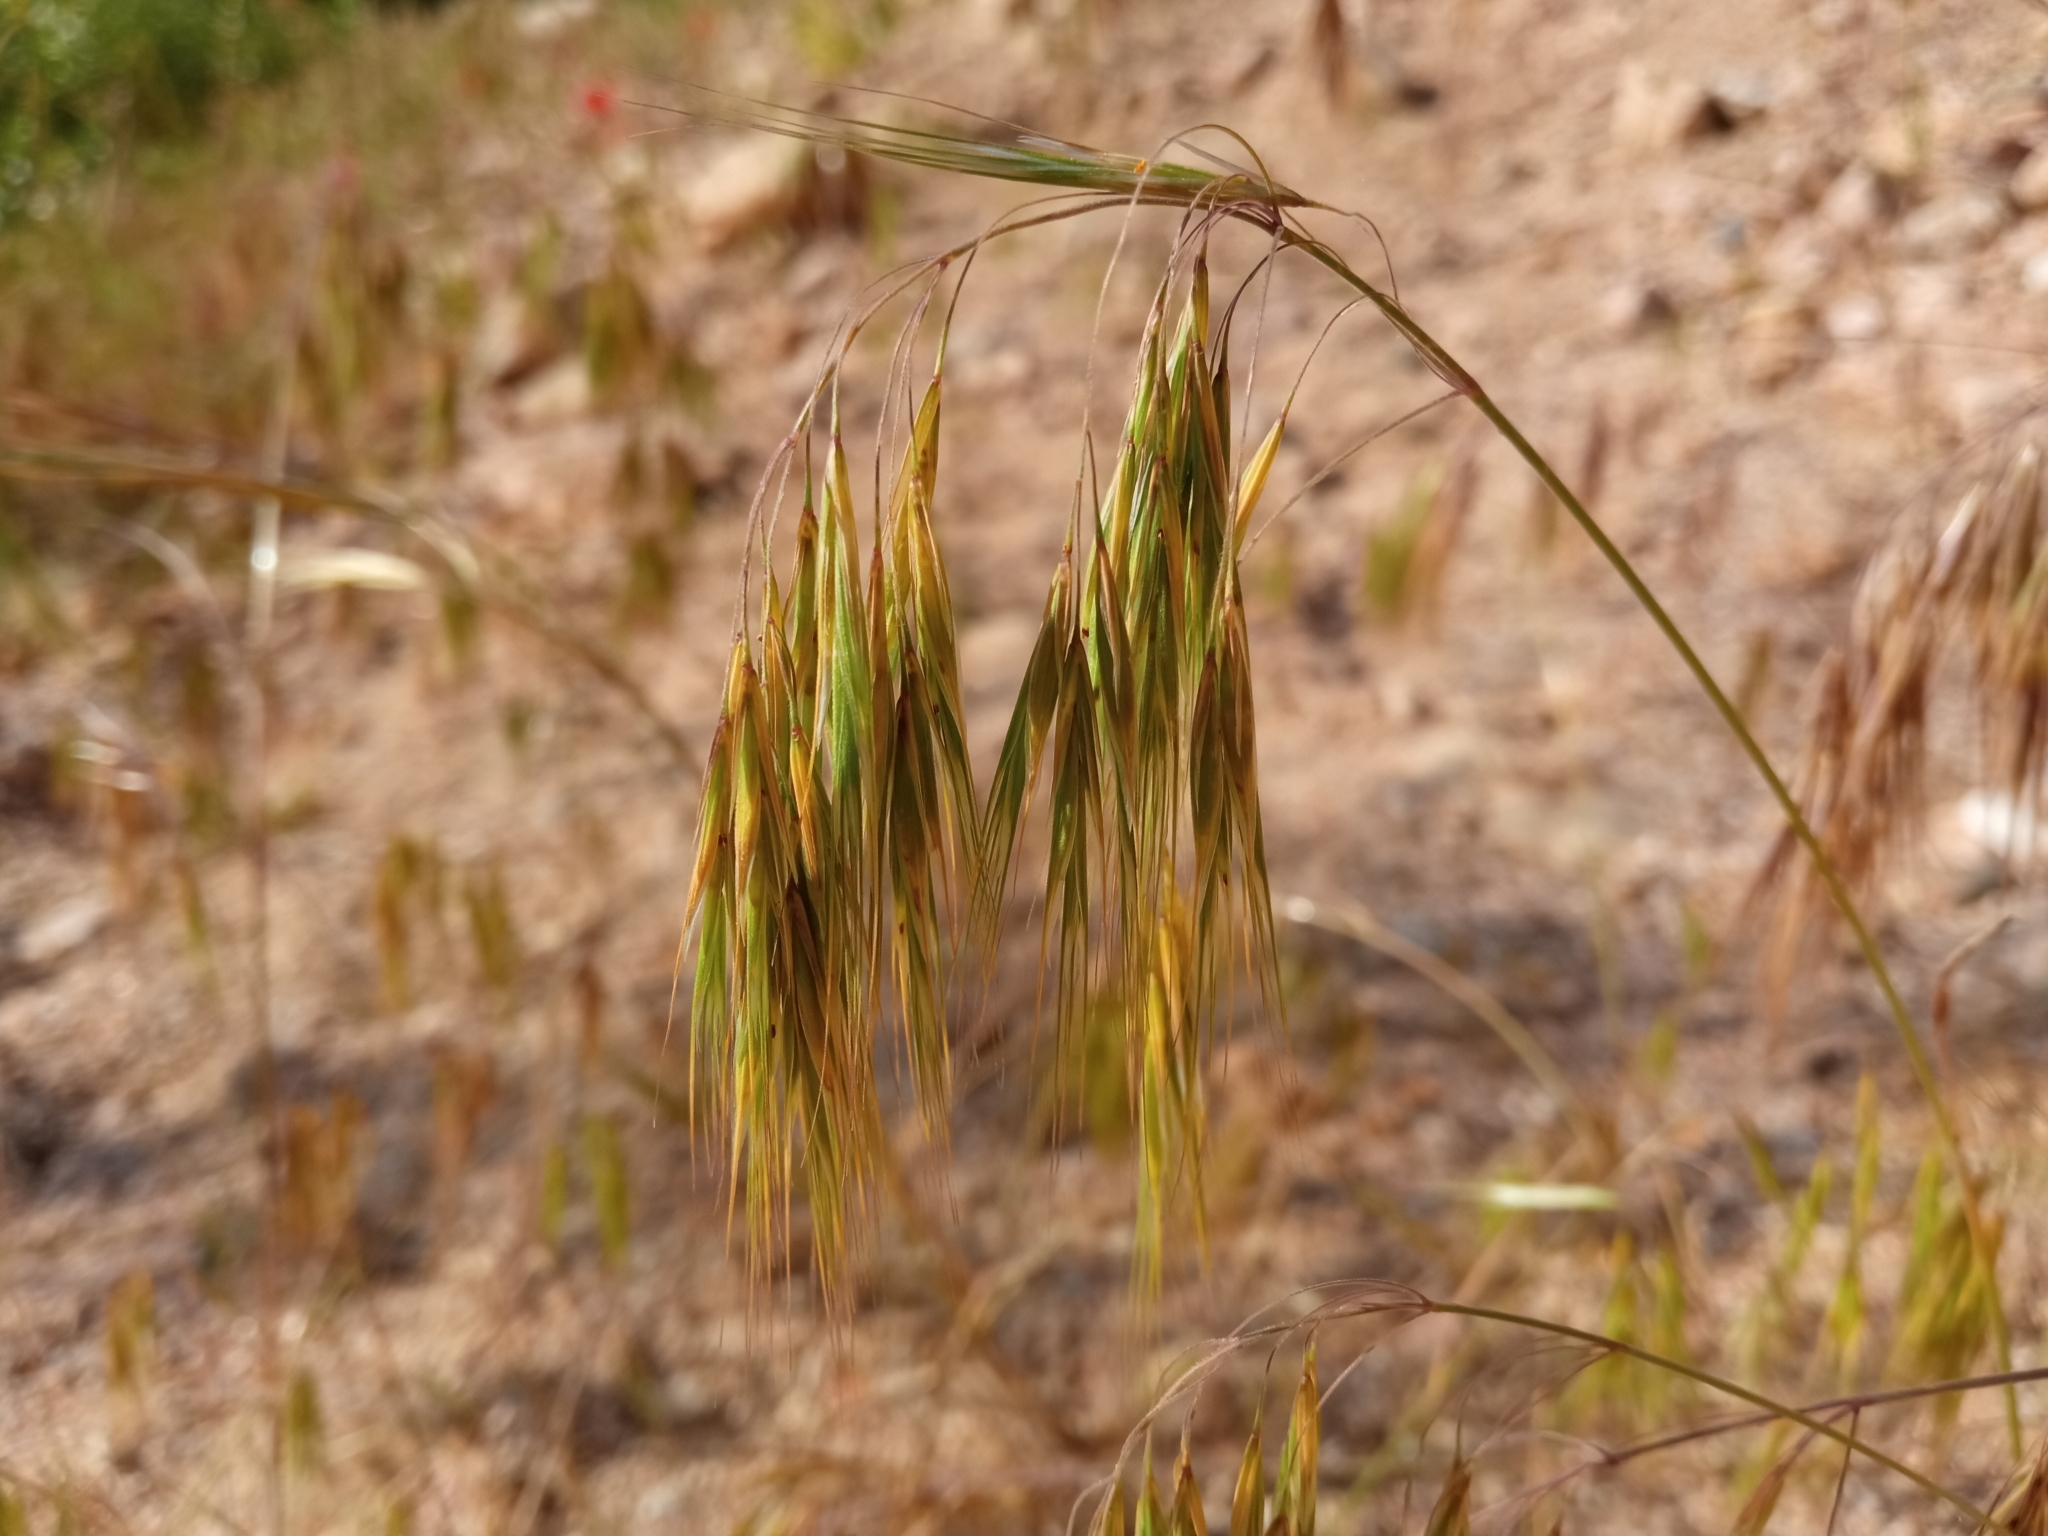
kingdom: Plantae
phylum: Tracheophyta
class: Liliopsida
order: Poales
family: Poaceae
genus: Bromus
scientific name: Bromus tectorum
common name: Cheatgrass
